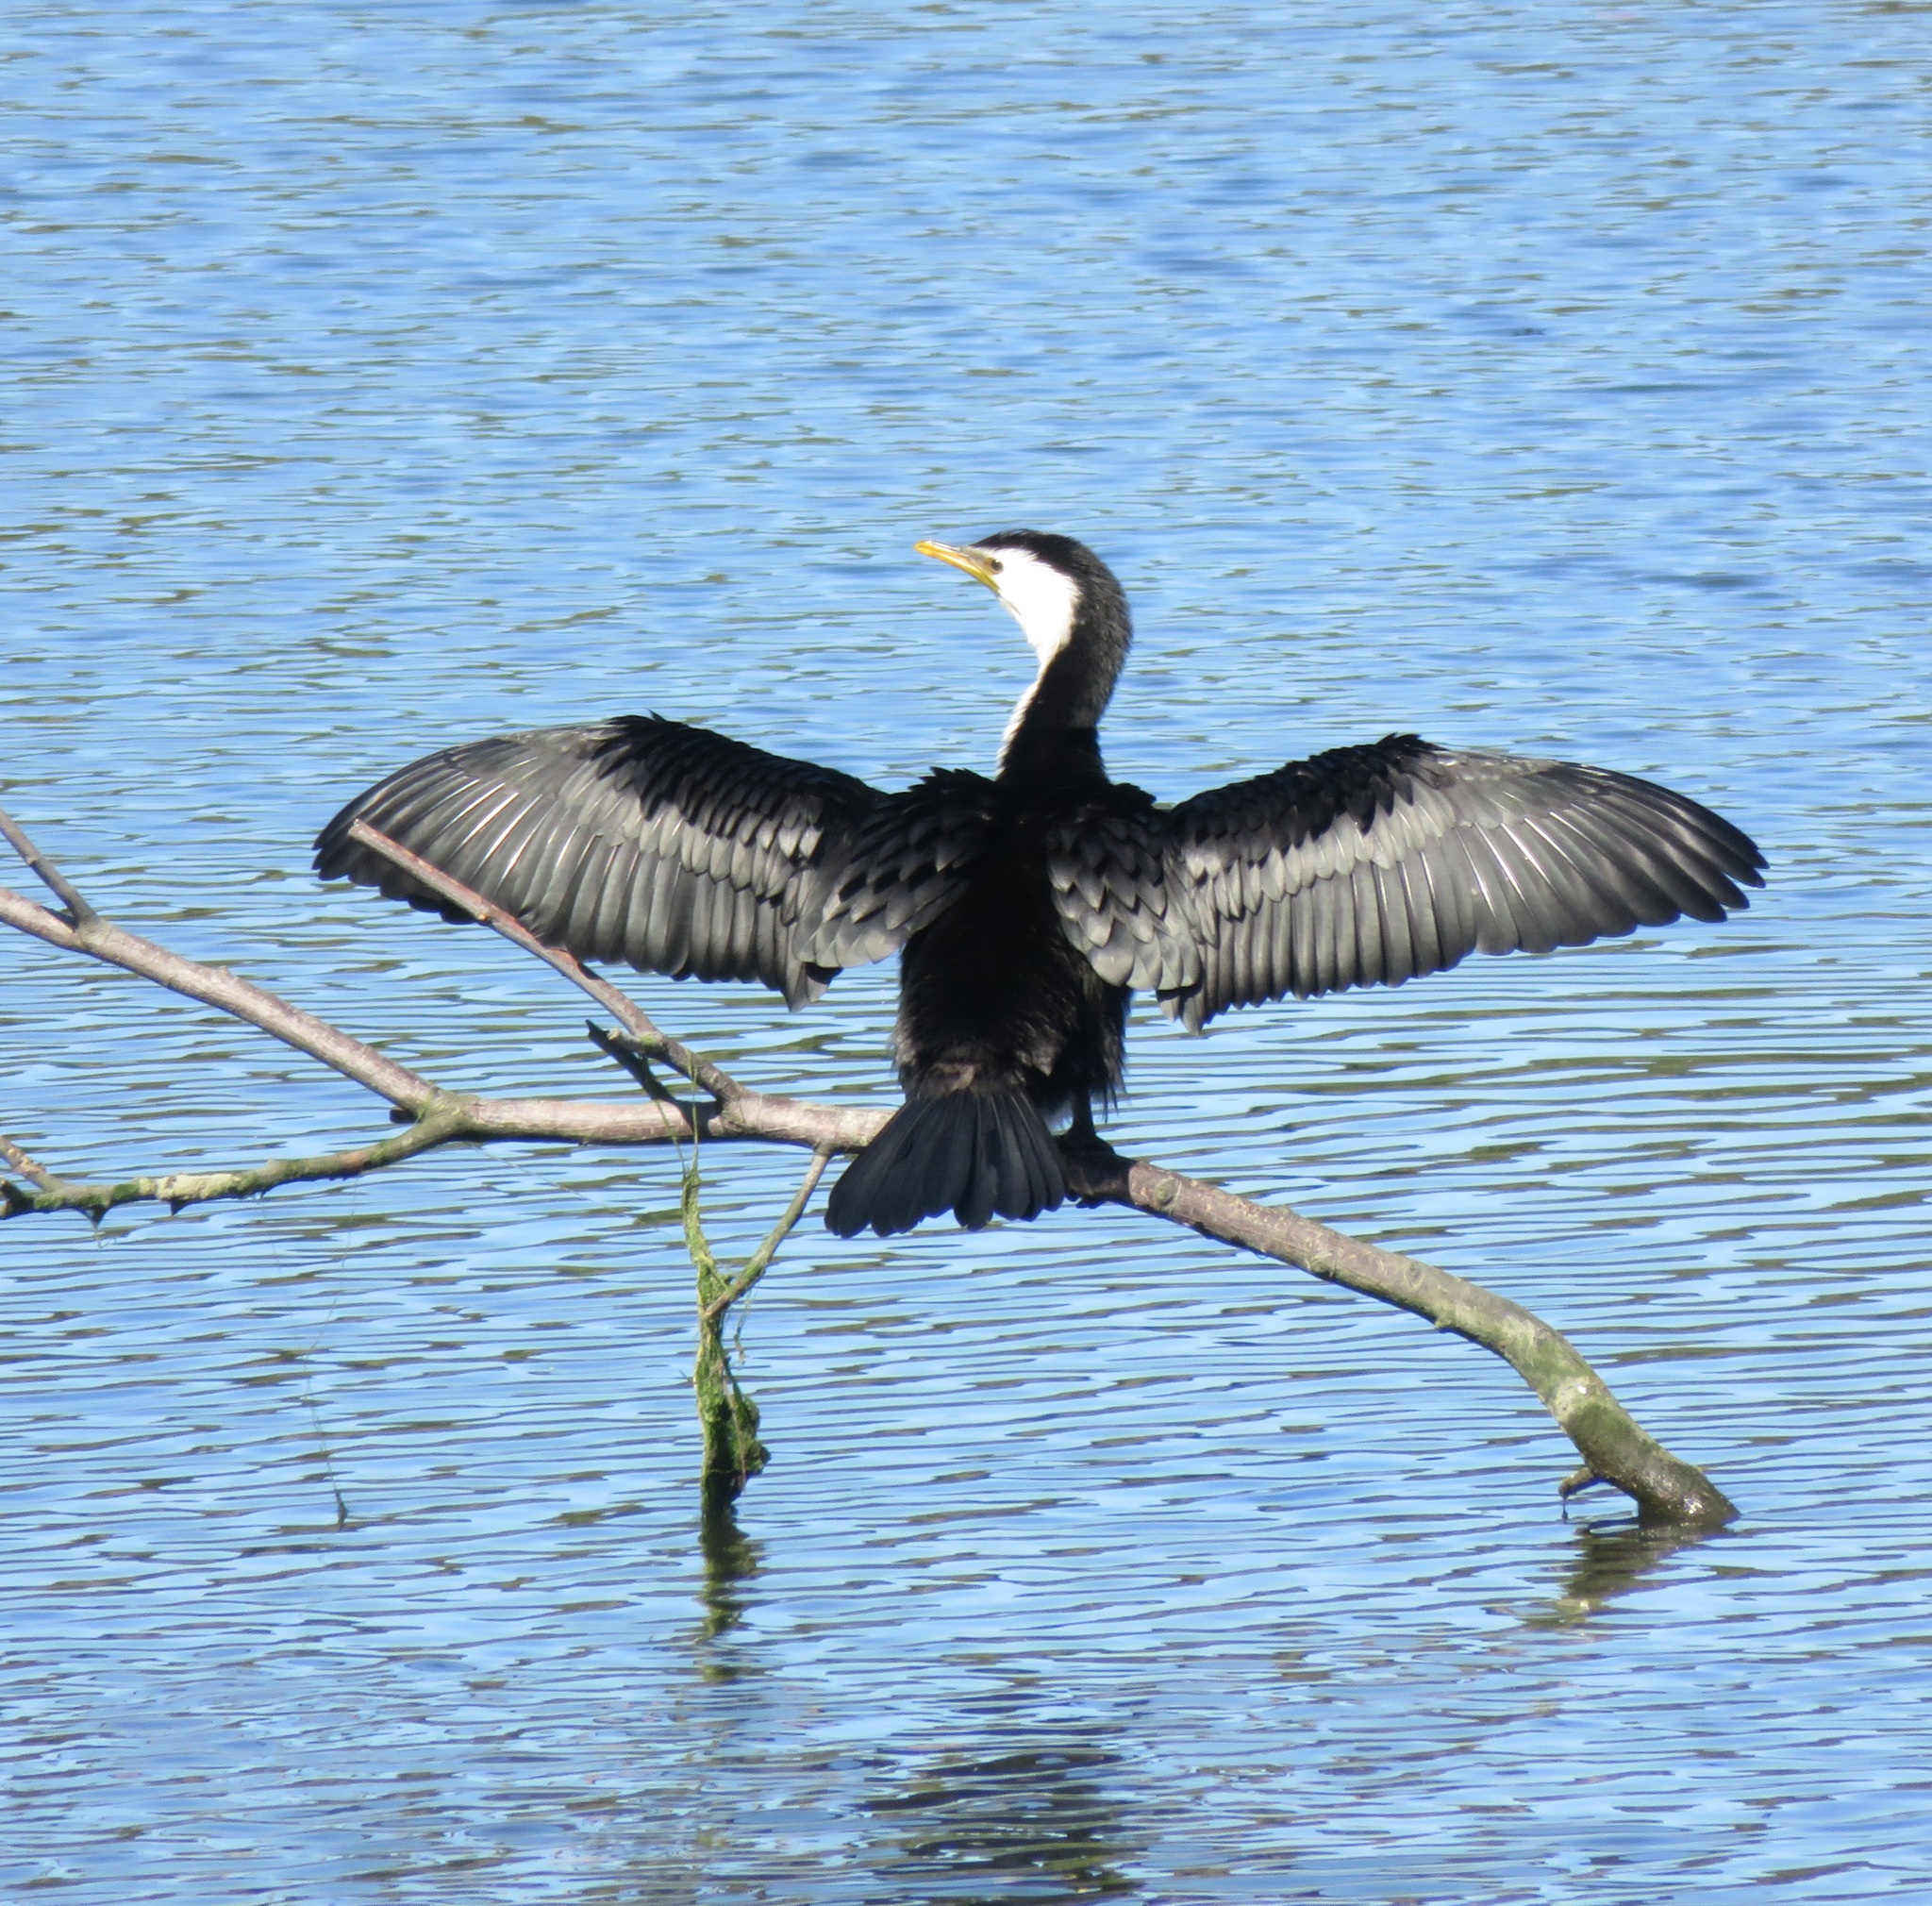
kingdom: Animalia
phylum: Chordata
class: Aves
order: Suliformes
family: Phalacrocoracidae
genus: Microcarbo
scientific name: Microcarbo melanoleucos
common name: Little pied cormorant
